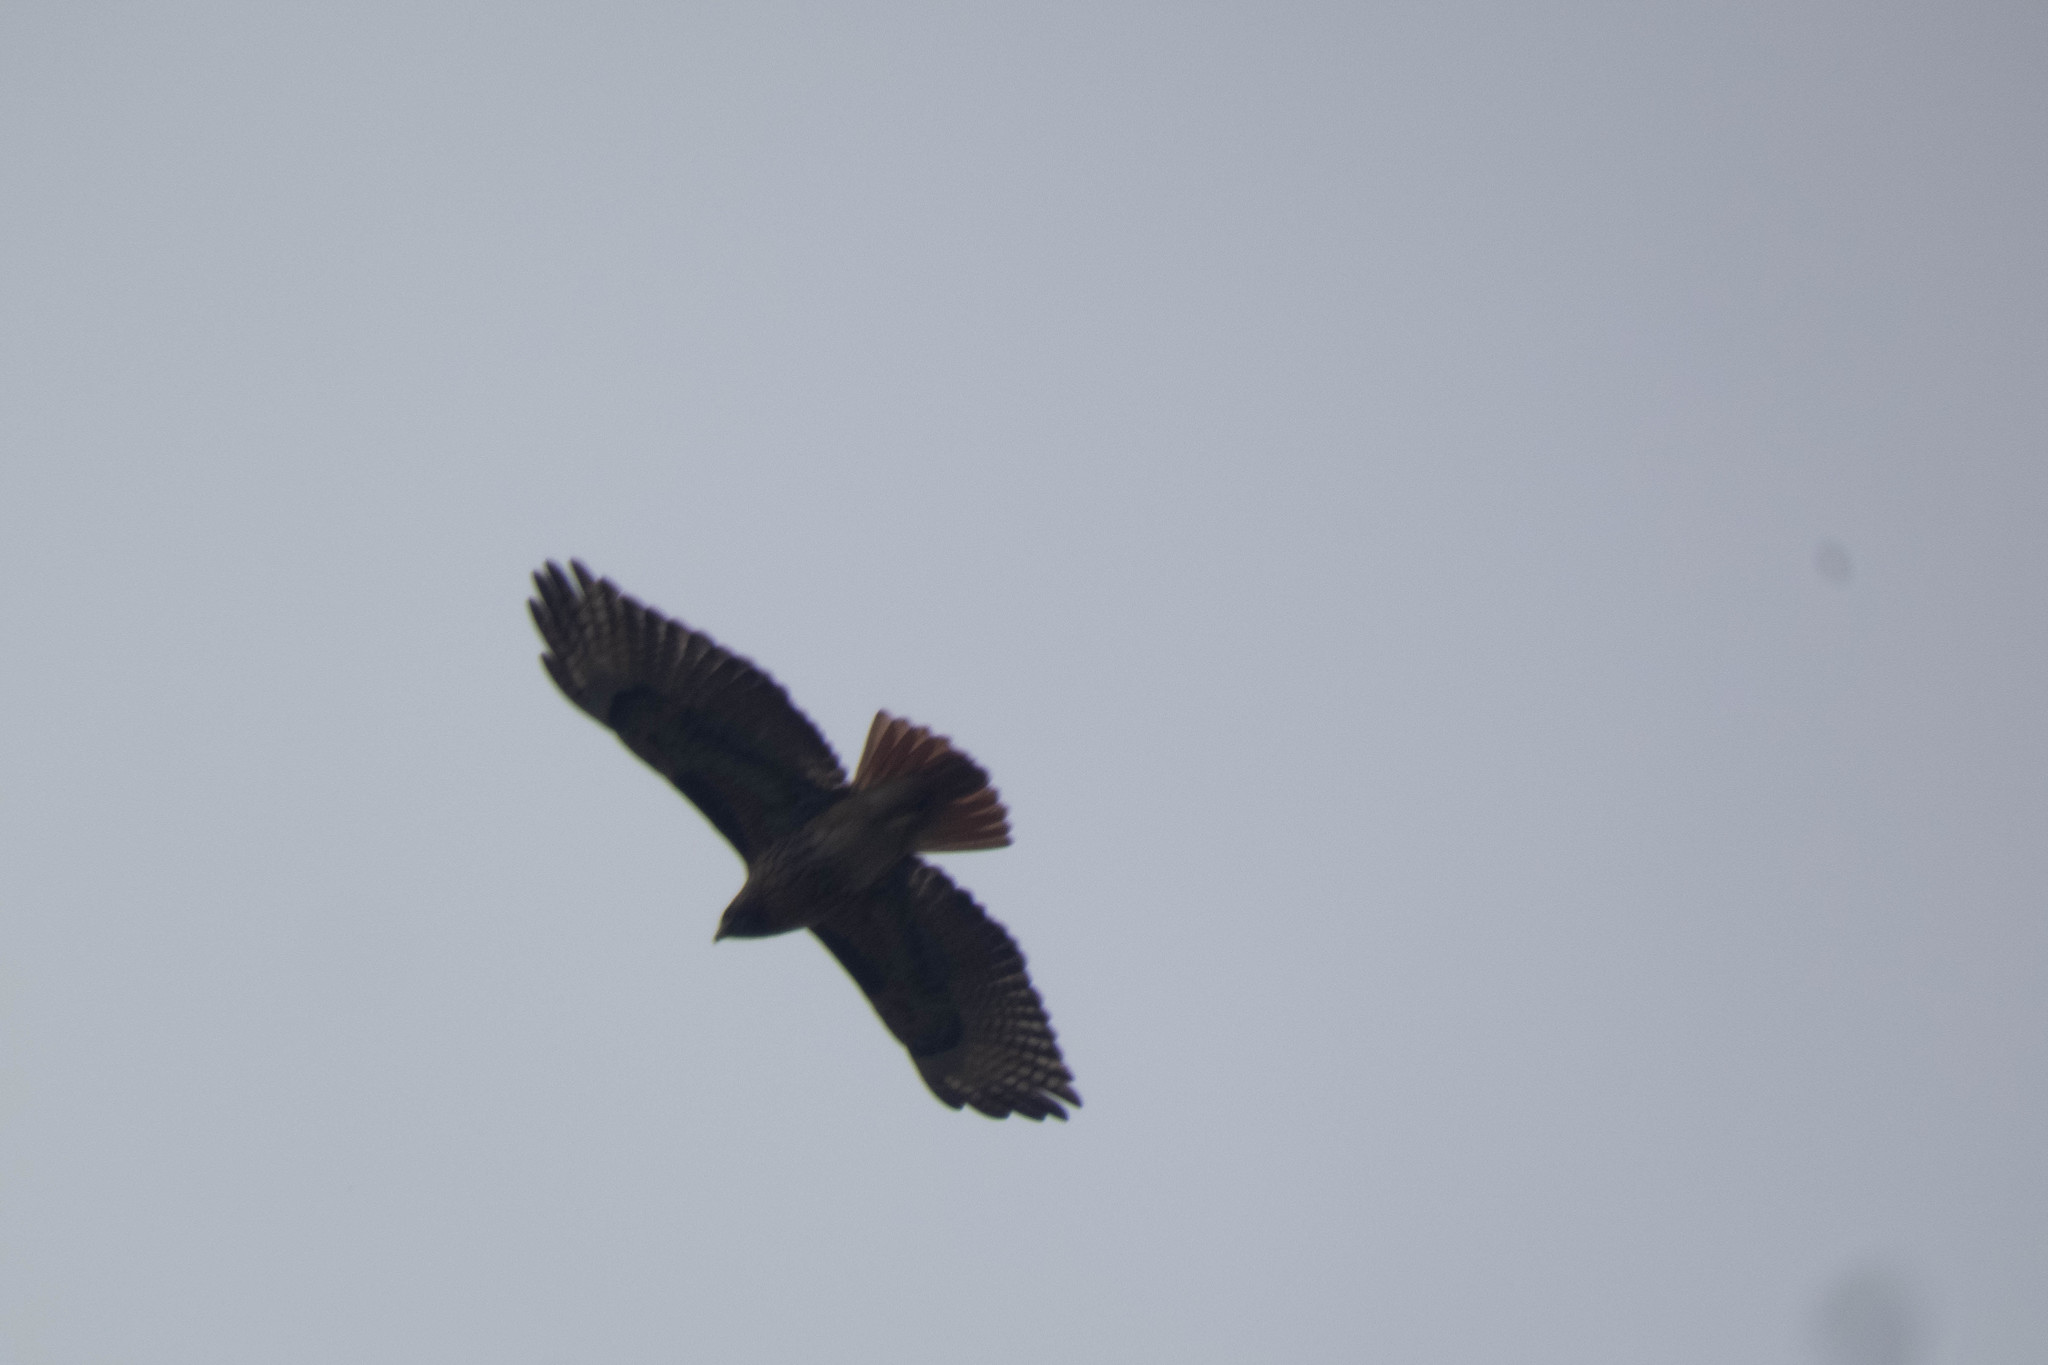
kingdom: Animalia
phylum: Chordata
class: Aves
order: Accipitriformes
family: Accipitridae
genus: Buteo
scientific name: Buteo jamaicensis
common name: Red-tailed hawk
